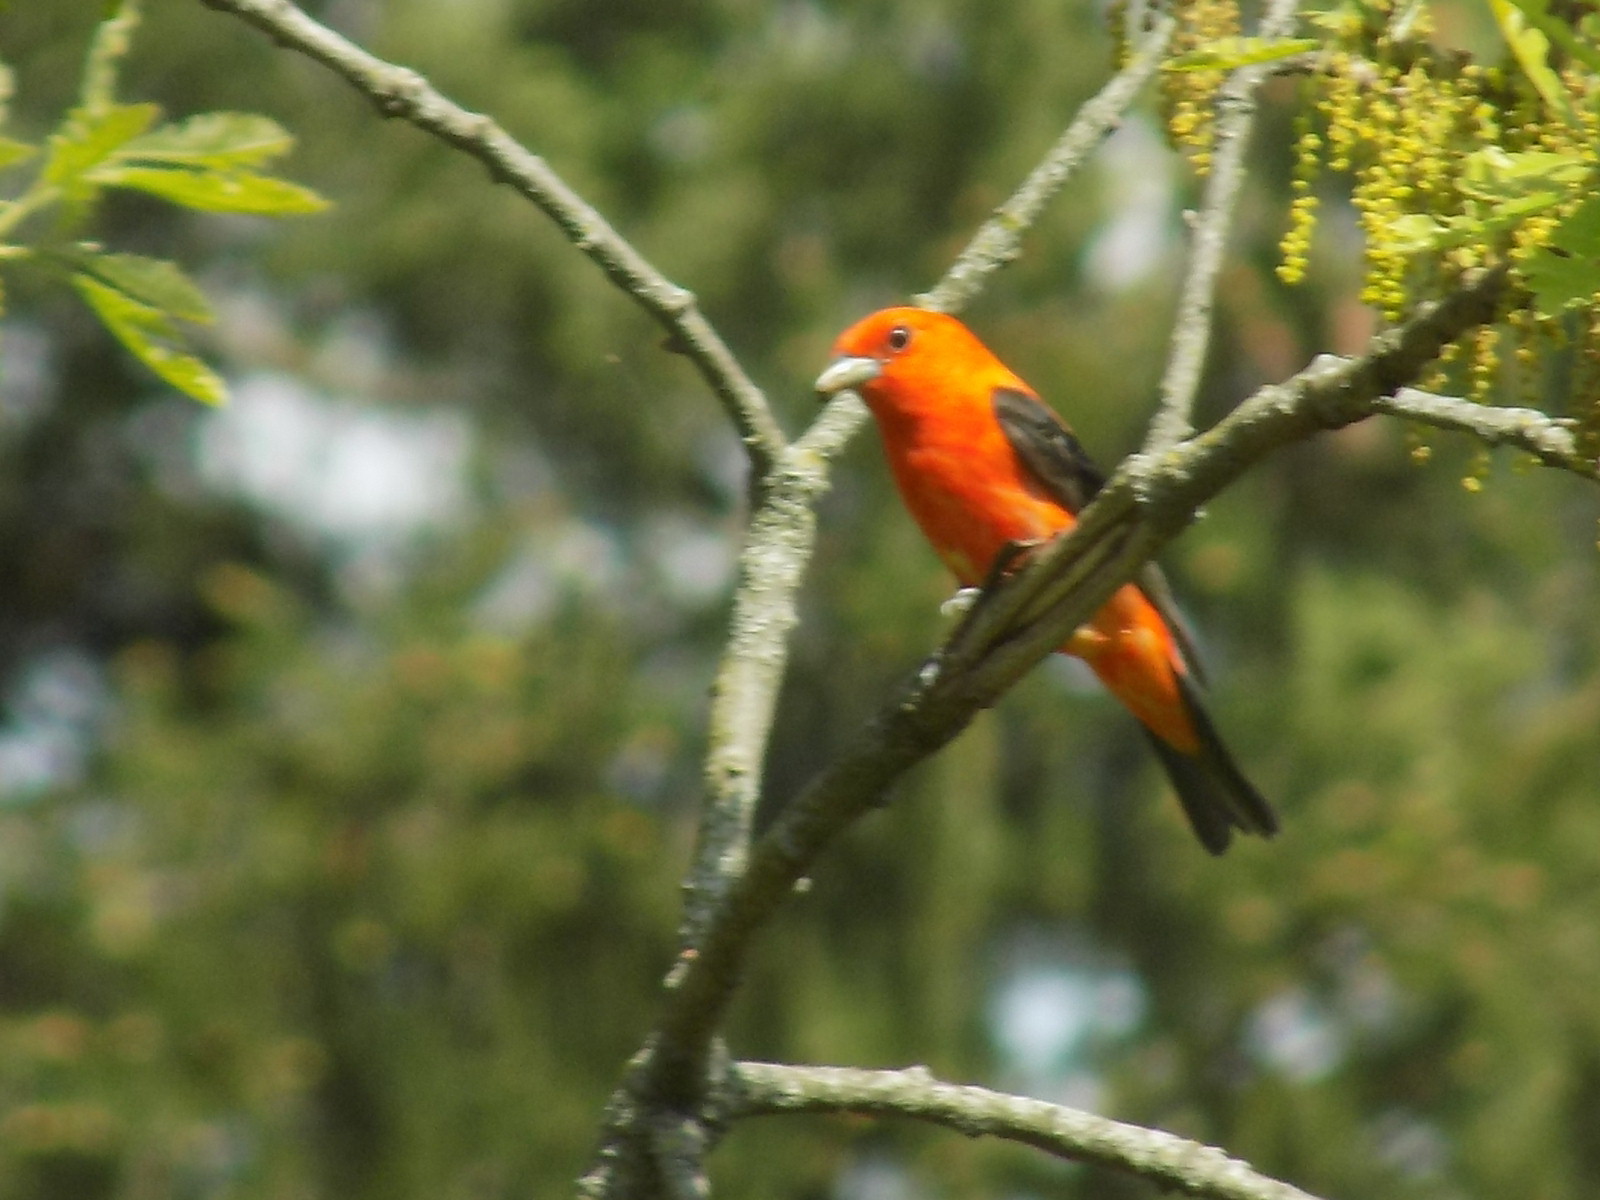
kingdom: Animalia
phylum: Chordata
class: Aves
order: Passeriformes
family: Cardinalidae
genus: Piranga
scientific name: Piranga olivacea
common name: Scarlet tanager
